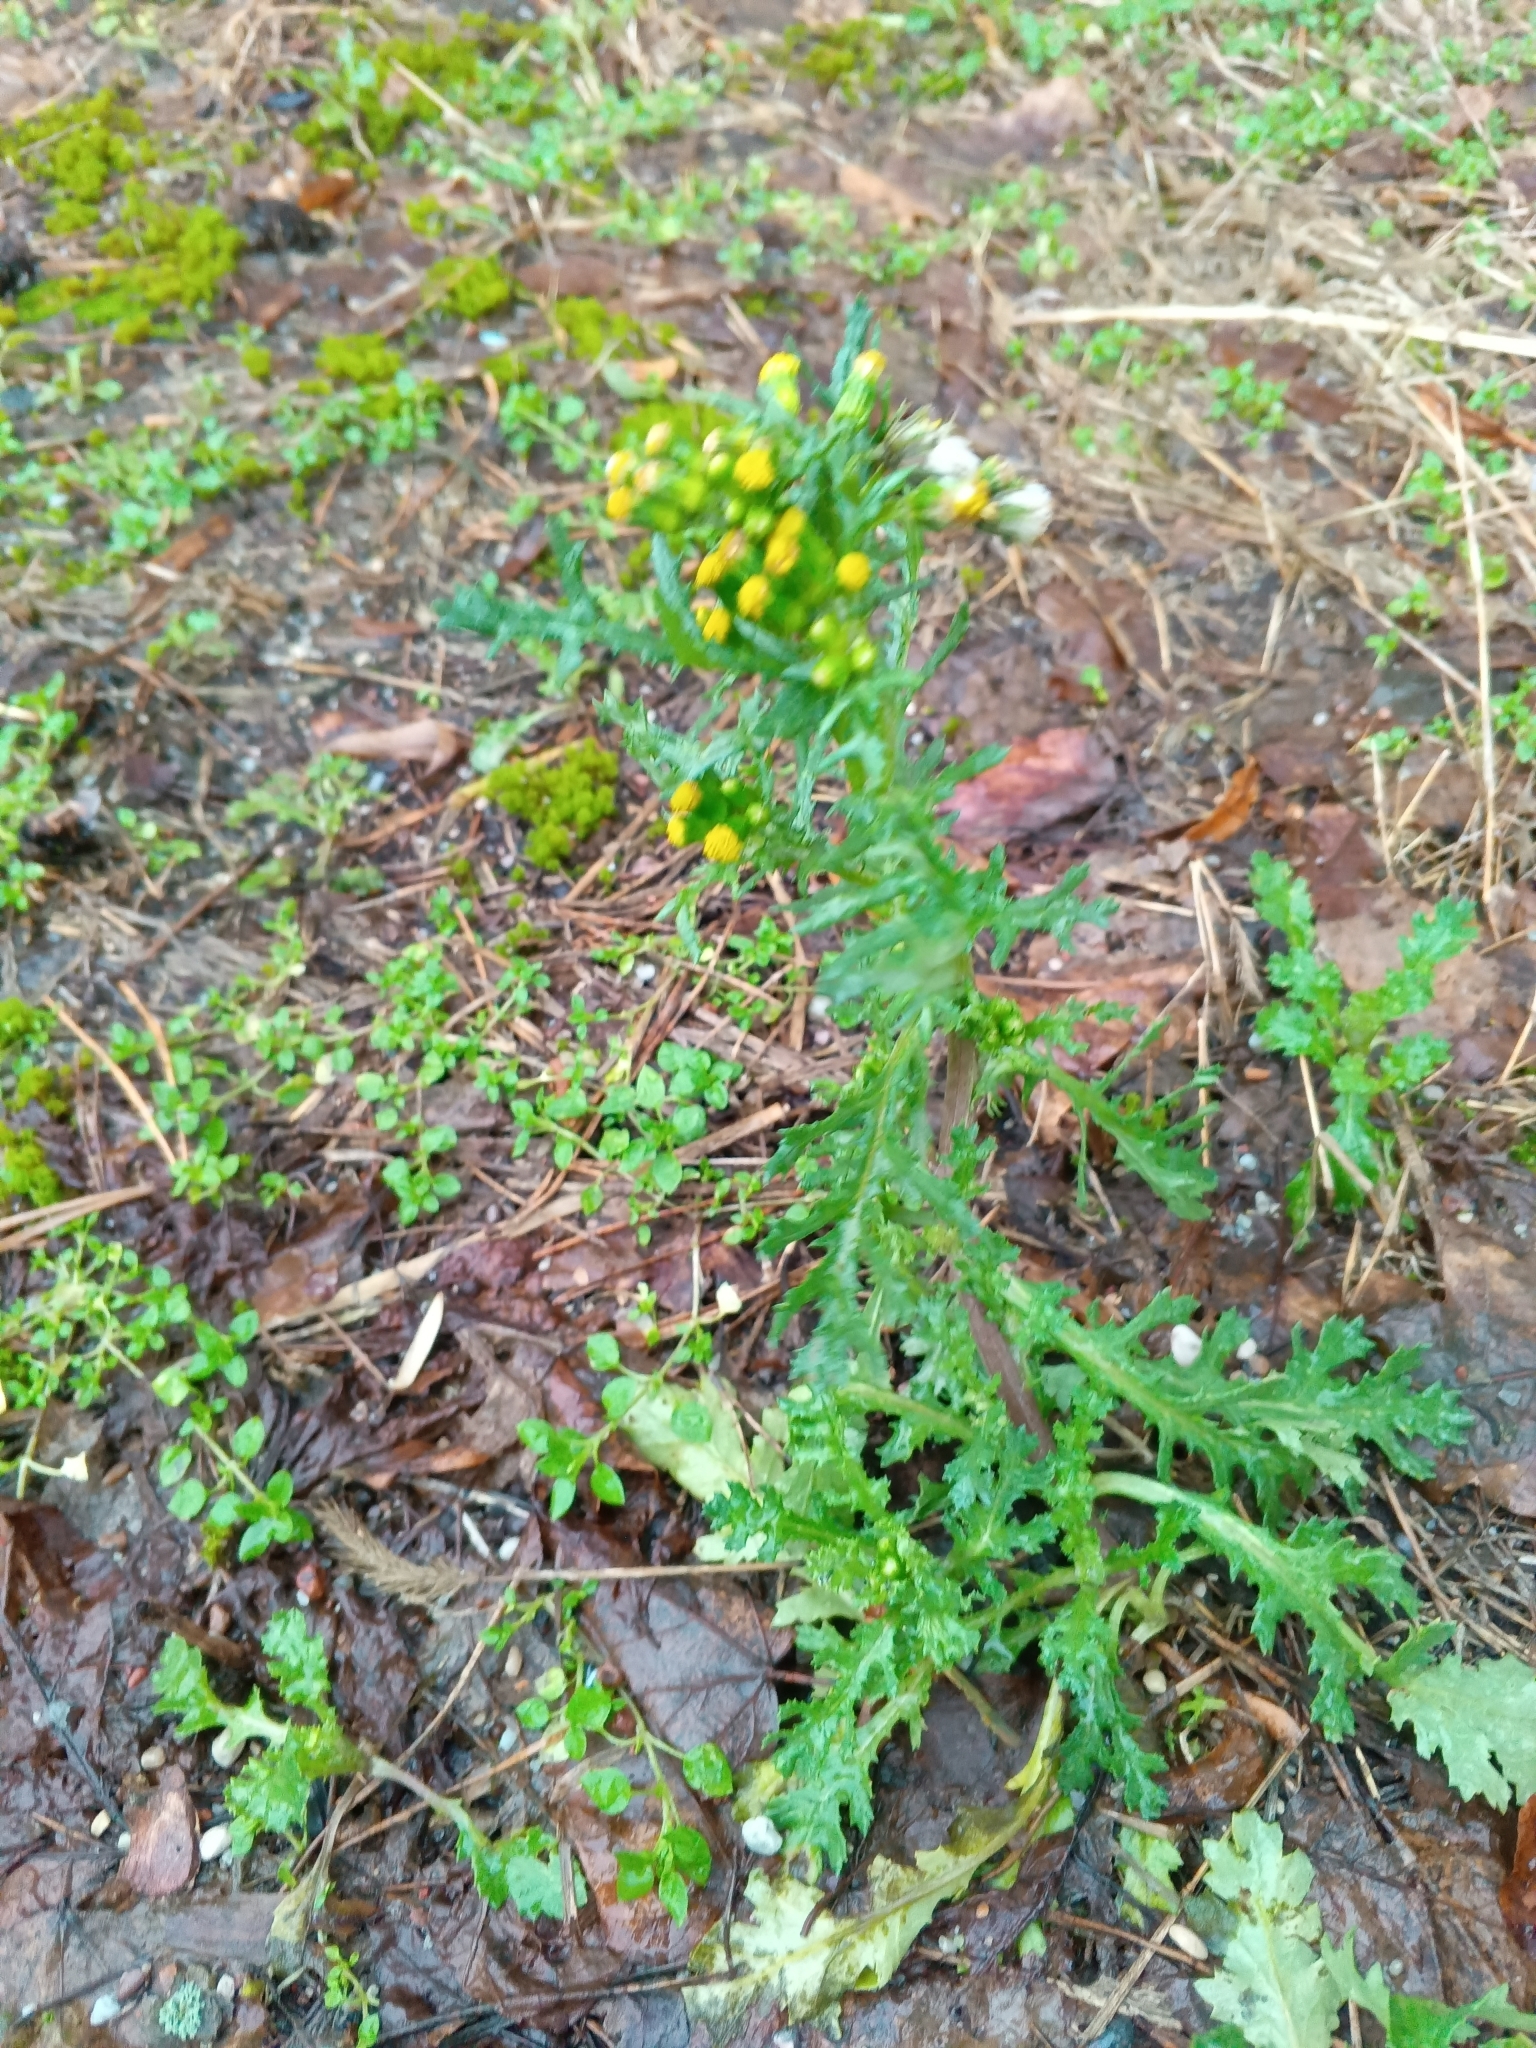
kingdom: Plantae
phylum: Tracheophyta
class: Magnoliopsida
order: Asterales
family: Asteraceae
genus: Senecio
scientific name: Senecio vulgaris
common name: Old-man-in-the-spring
